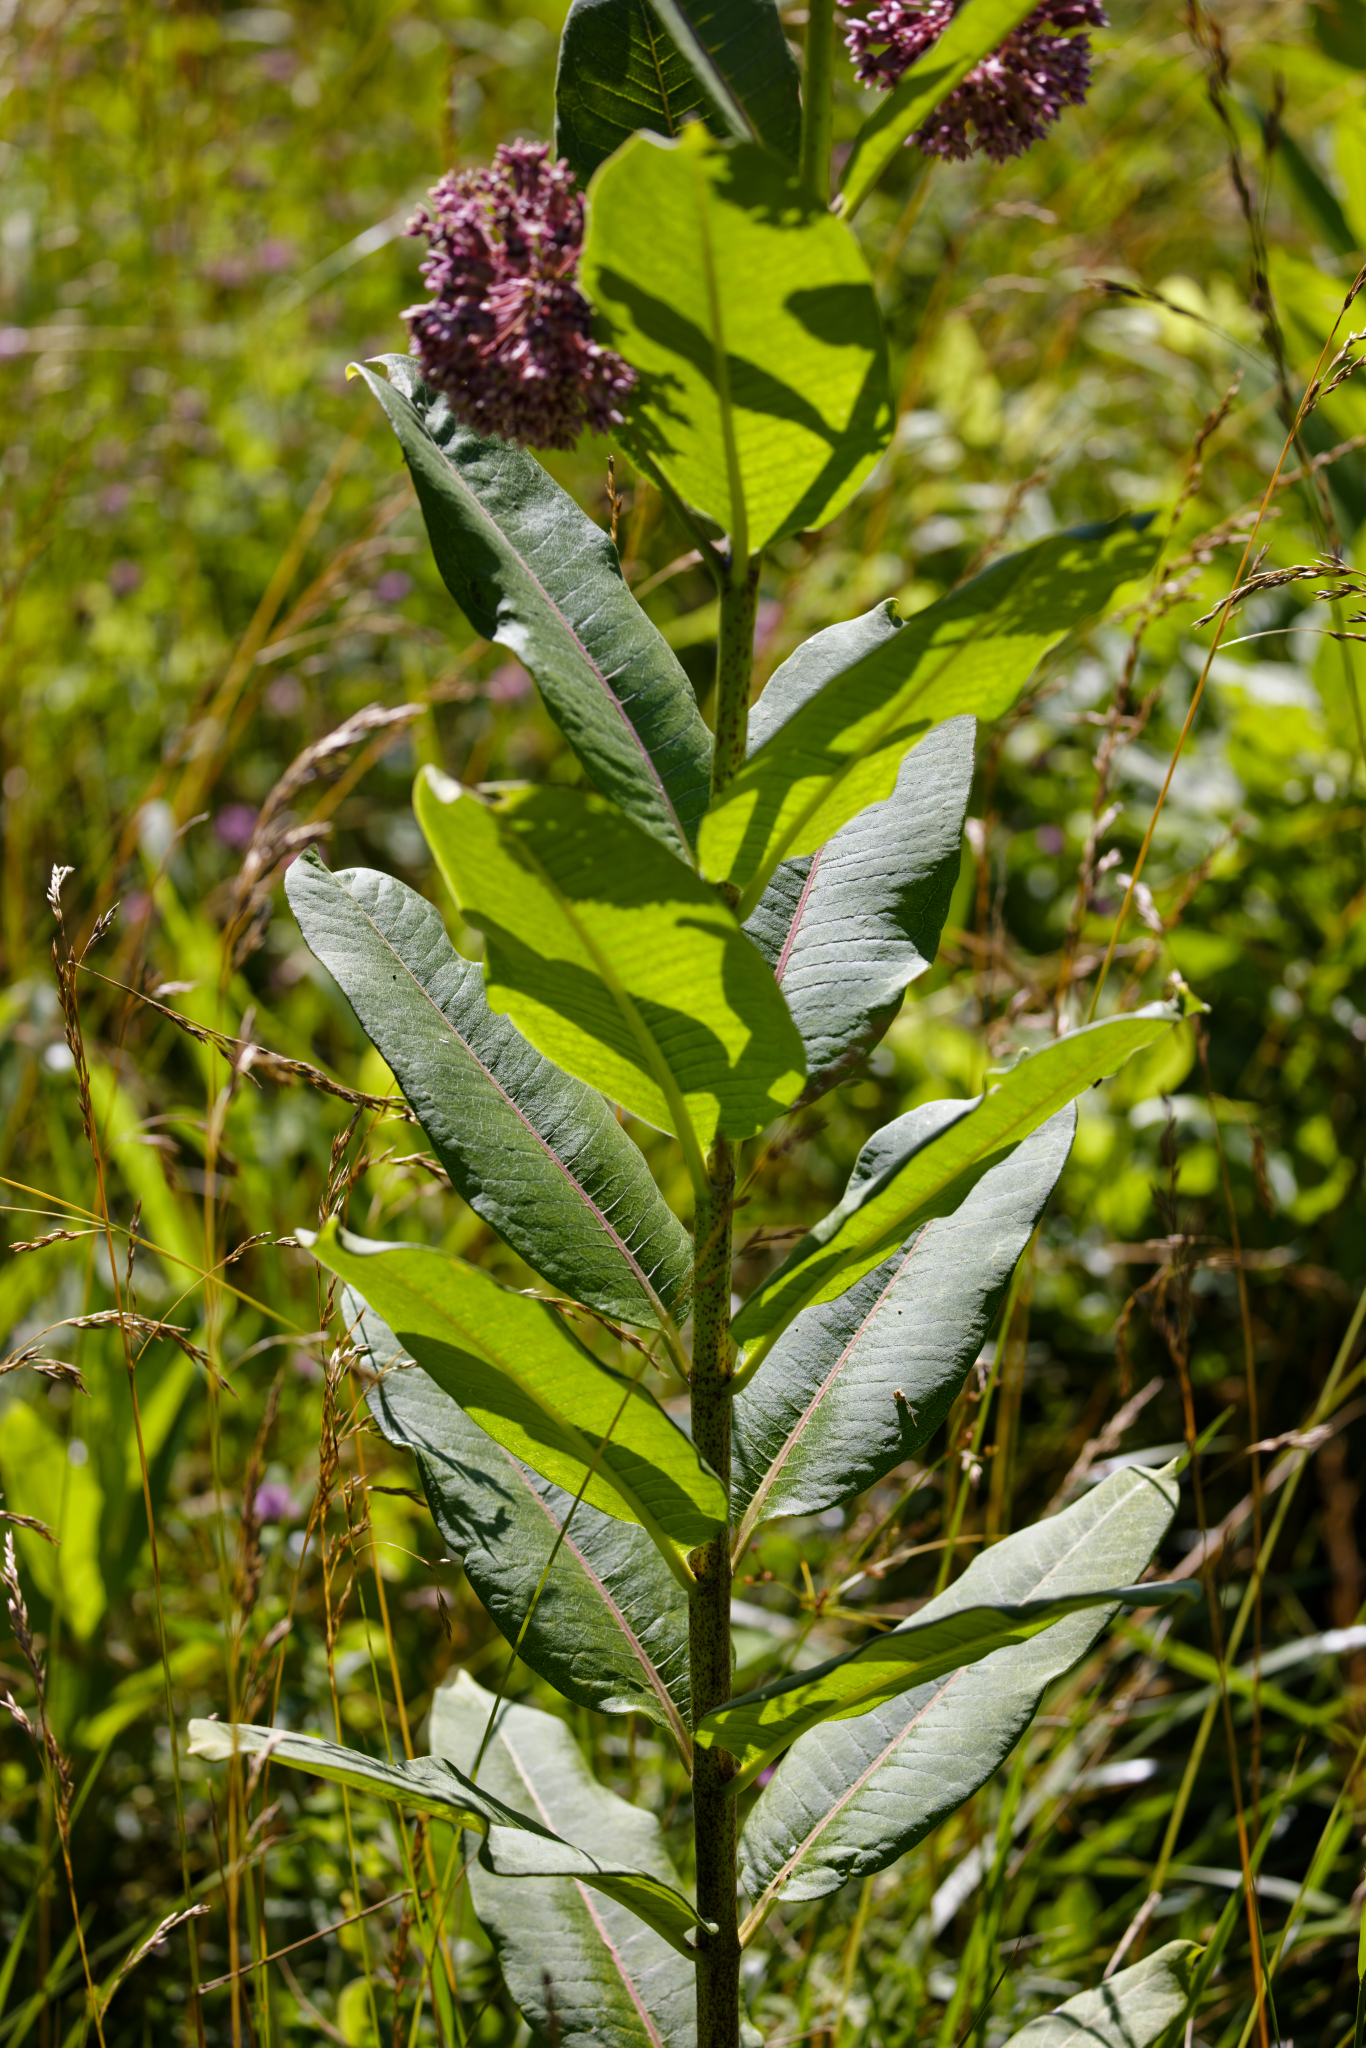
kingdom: Plantae
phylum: Tracheophyta
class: Magnoliopsida
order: Gentianales
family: Apocynaceae
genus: Asclepias
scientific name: Asclepias syriaca
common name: Common milkweed
